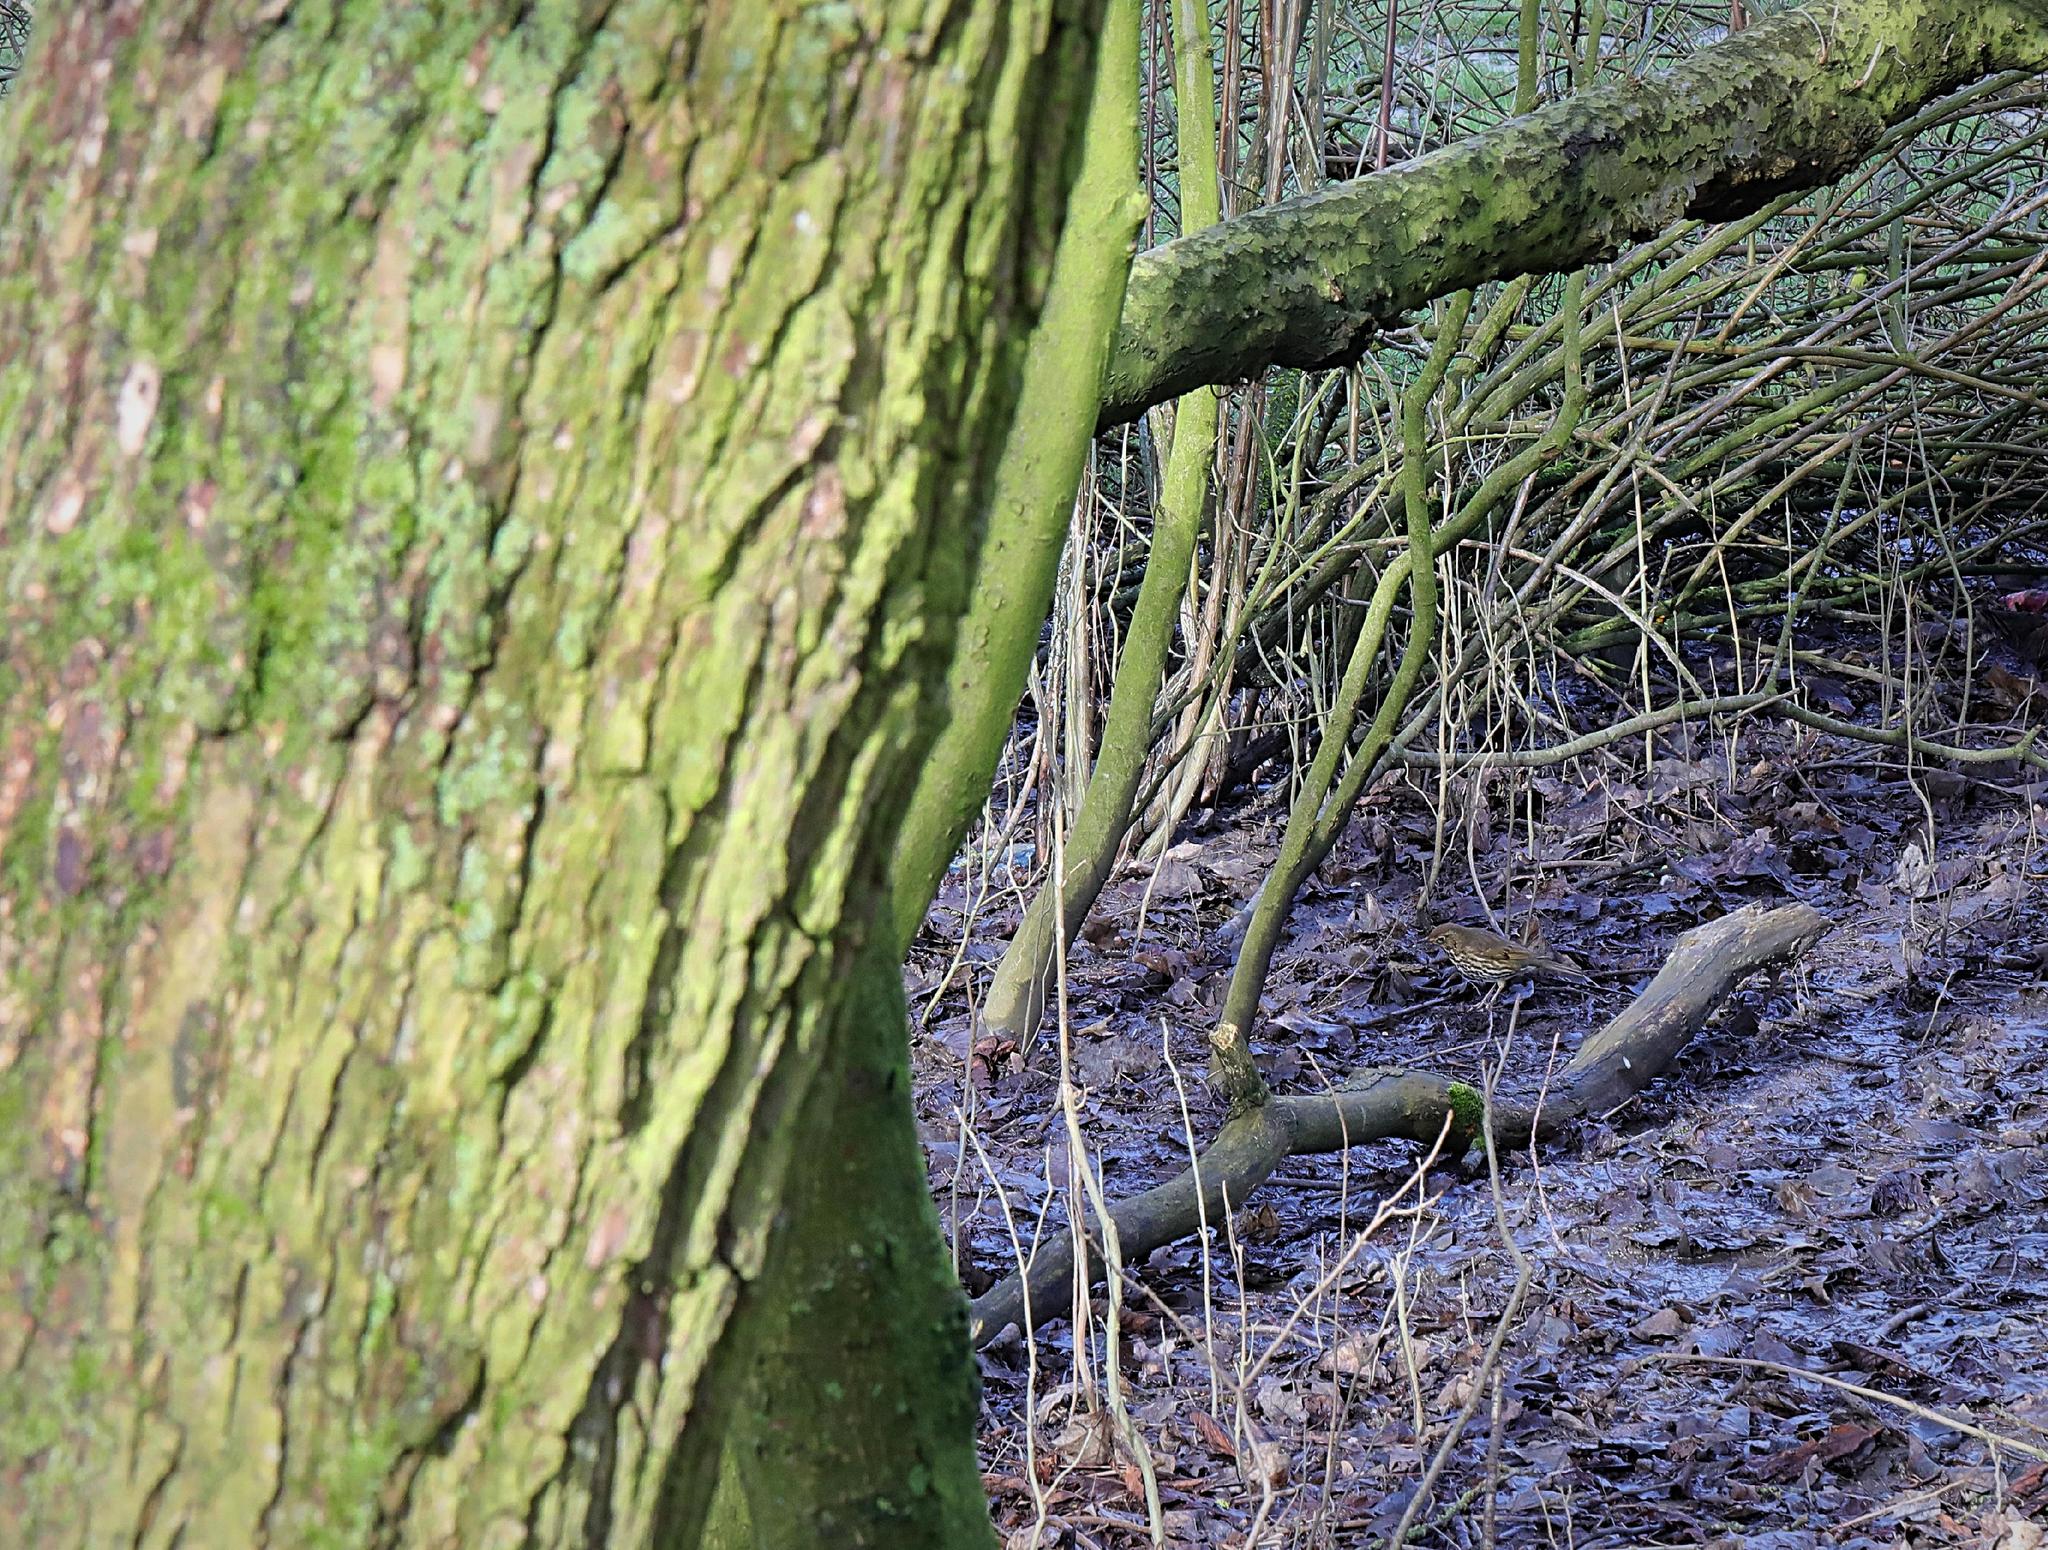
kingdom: Animalia
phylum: Chordata
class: Aves
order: Passeriformes
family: Turdidae
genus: Turdus
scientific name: Turdus philomelos
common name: Song thrush
